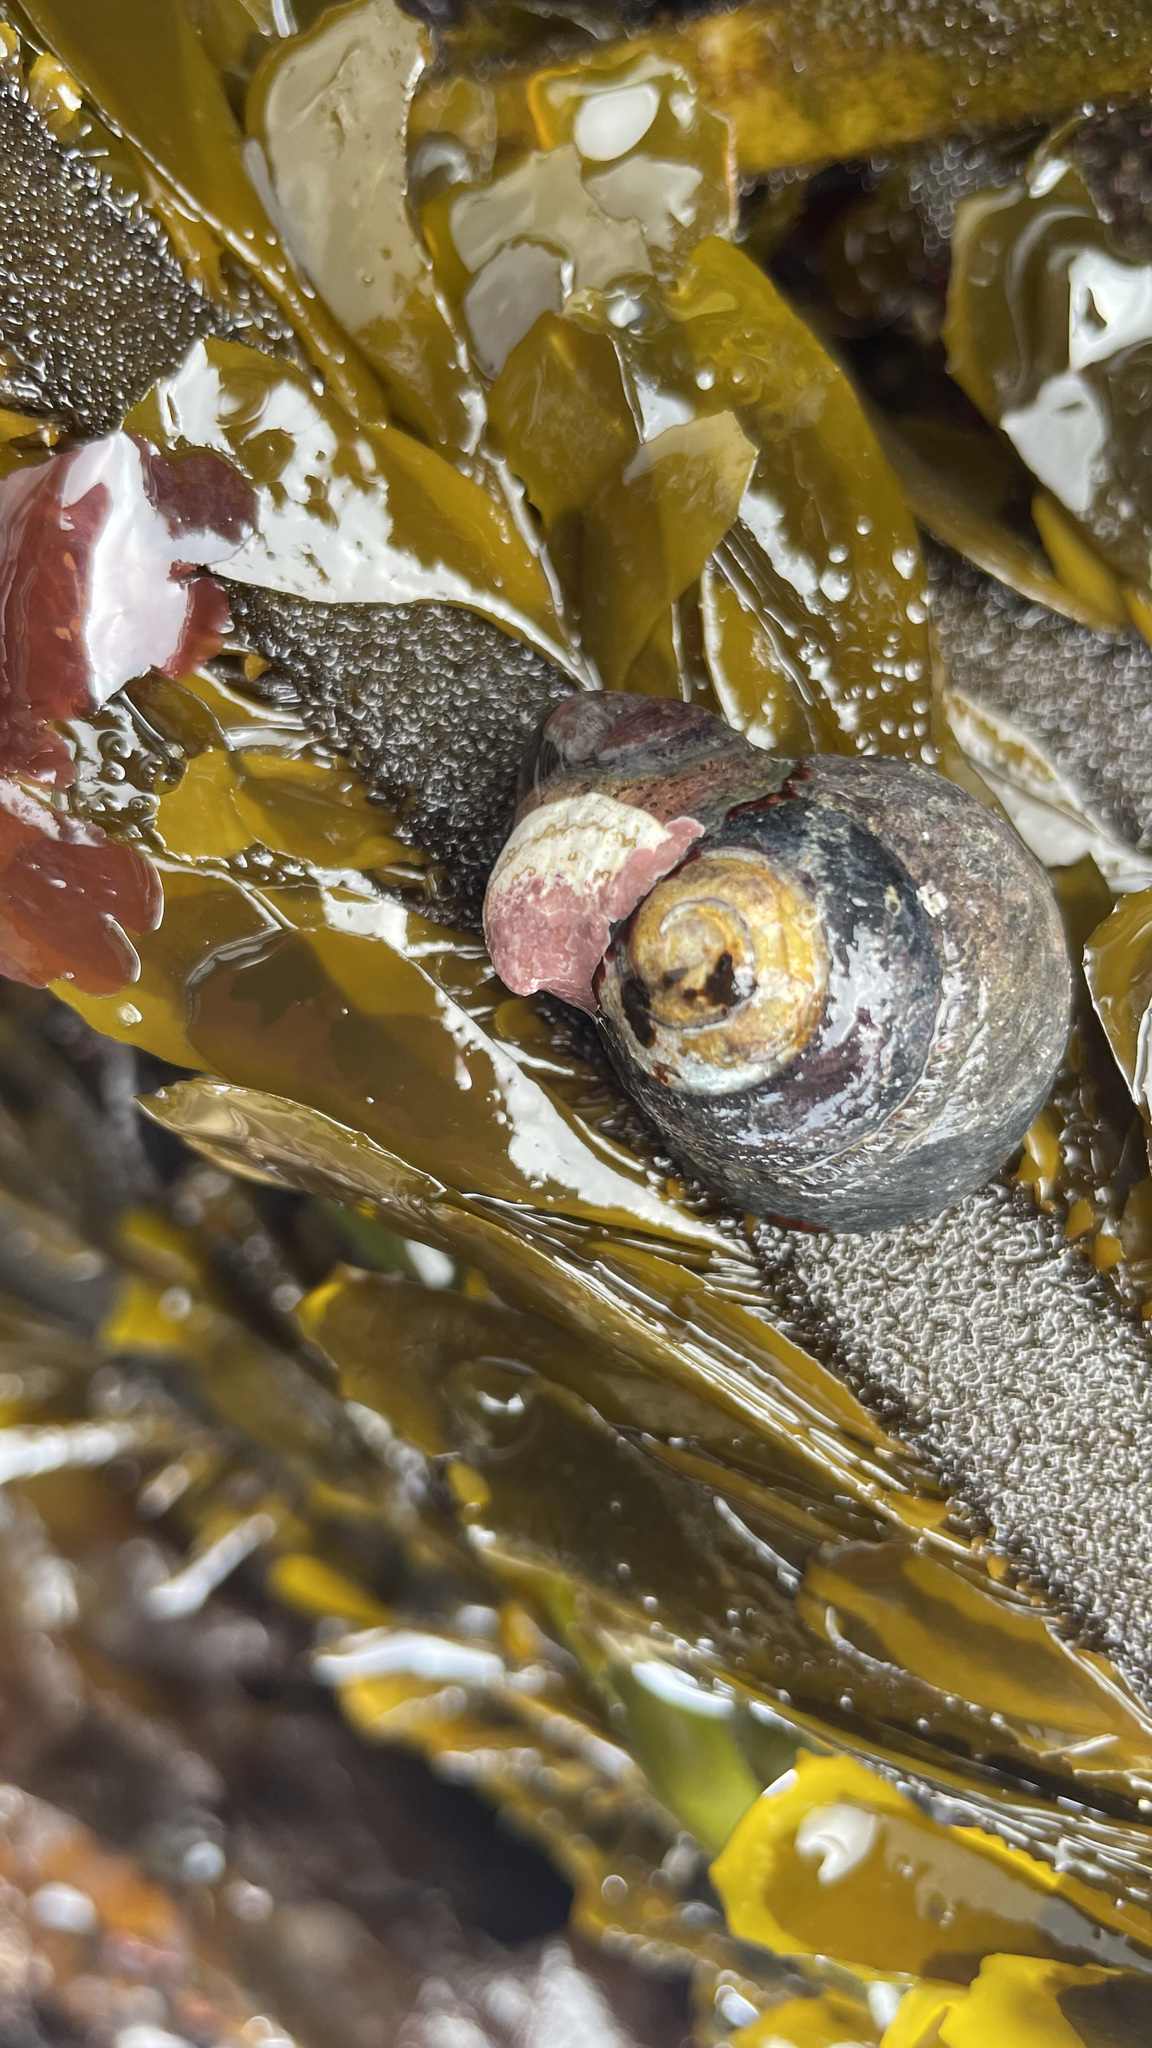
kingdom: Animalia
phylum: Mollusca
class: Gastropoda
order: Trochida
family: Tegulidae
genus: Tegula
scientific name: Tegula funebralis
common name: Black tegula
